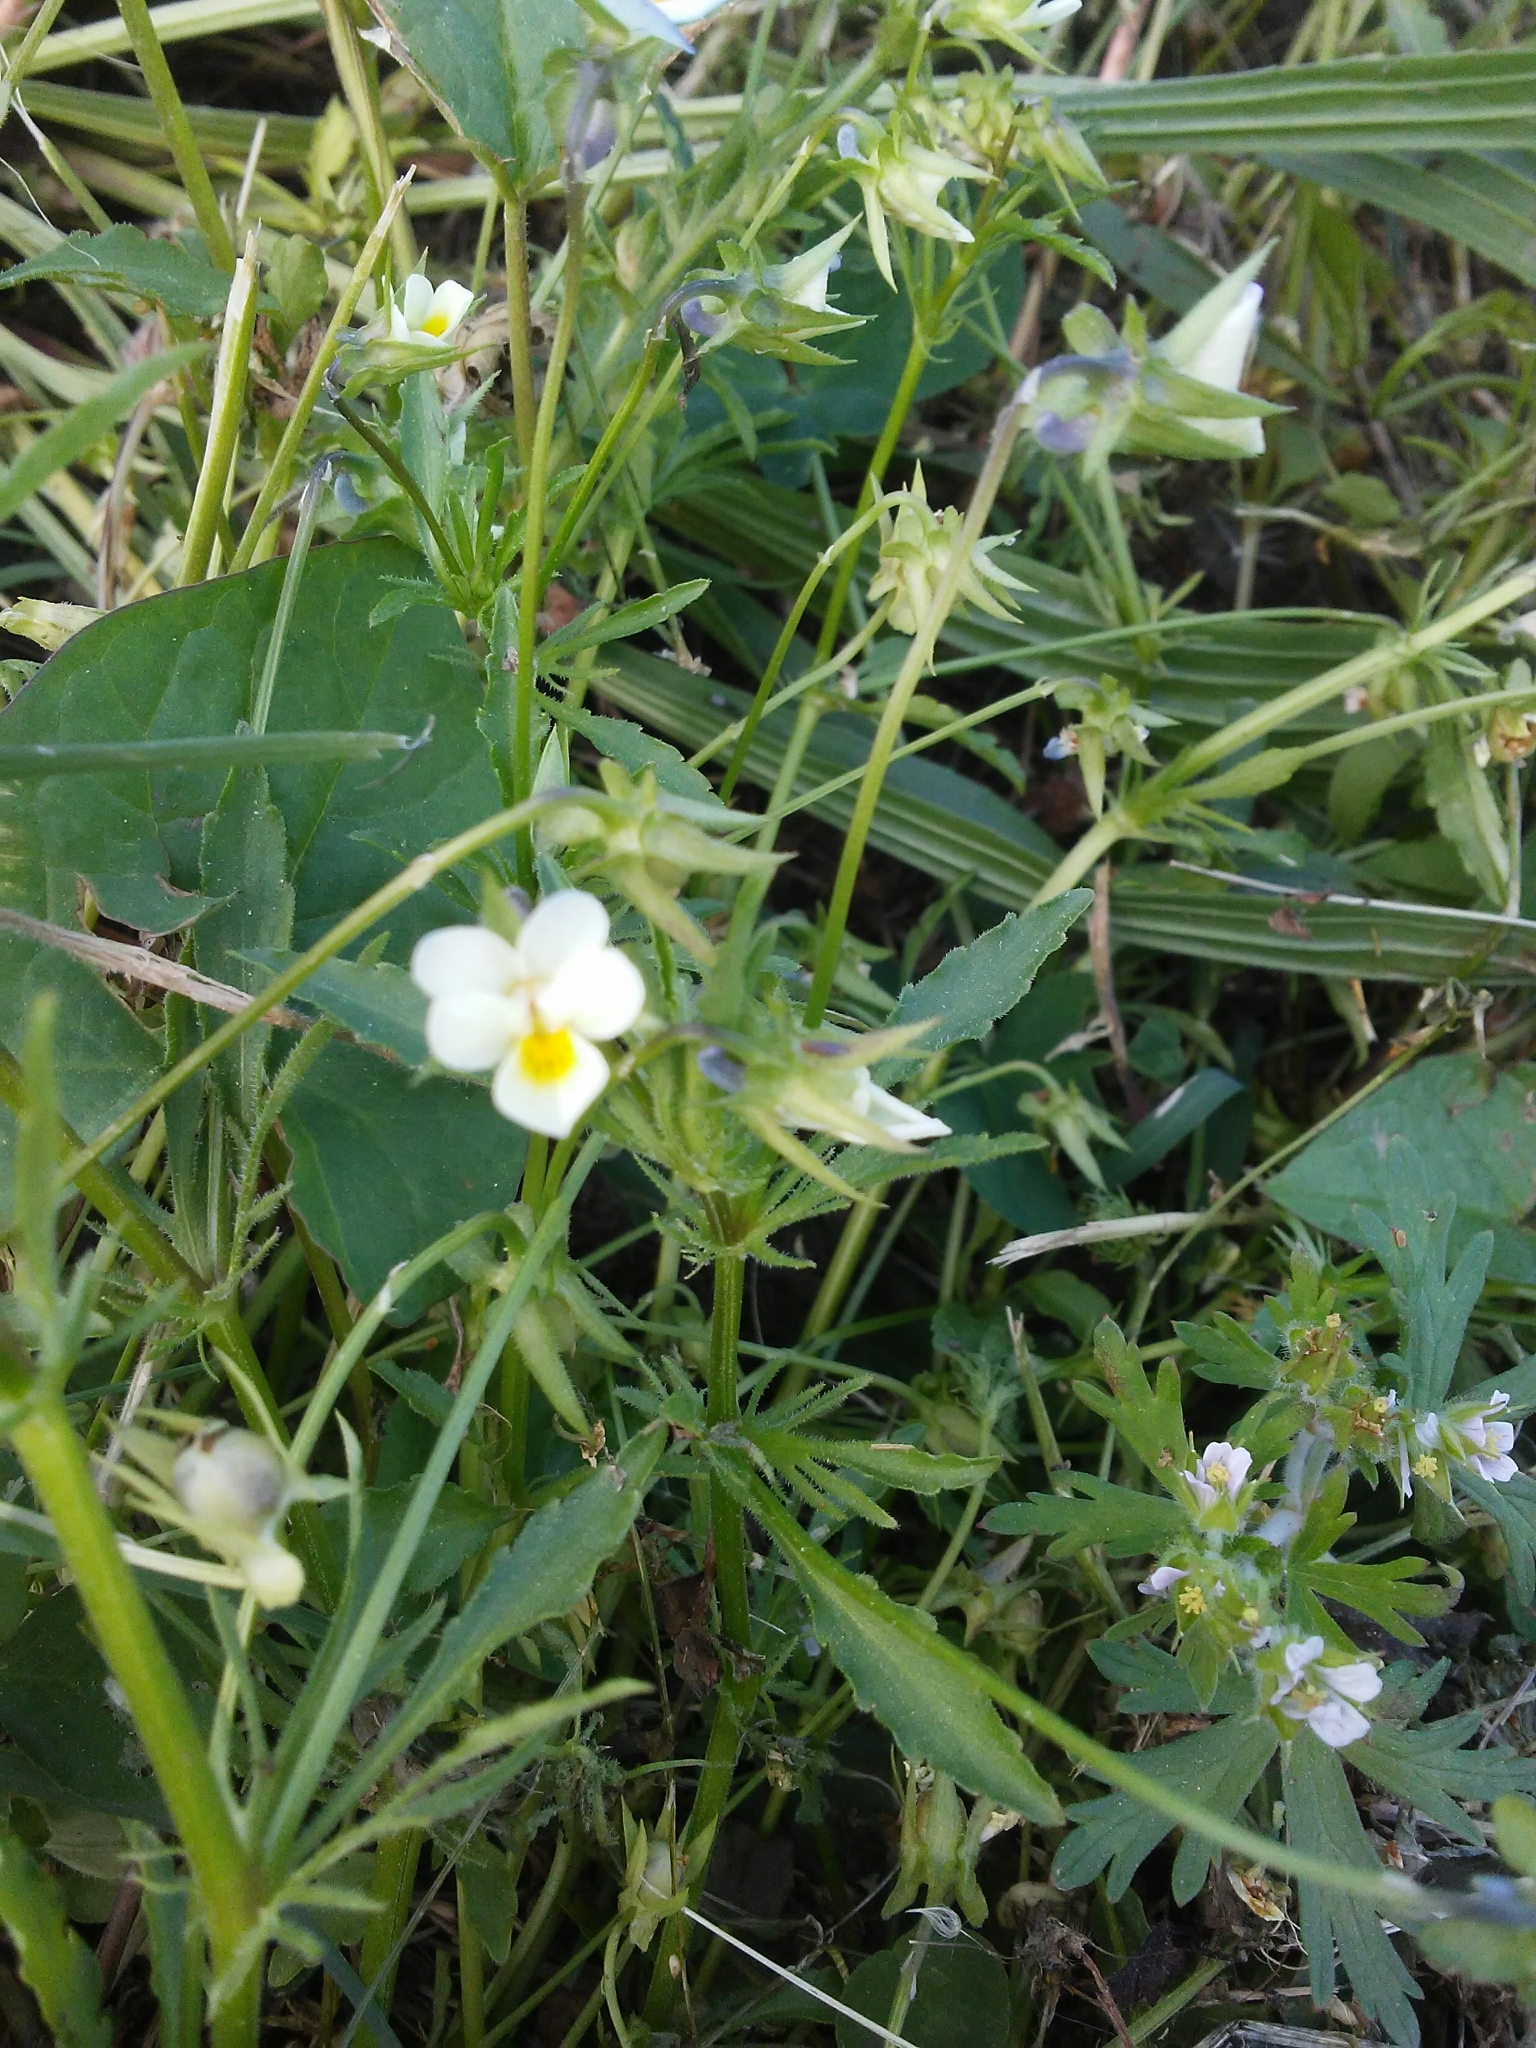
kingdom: Plantae
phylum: Tracheophyta
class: Magnoliopsida
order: Malpighiales
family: Violaceae
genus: Viola
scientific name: Viola arvensis
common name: Field pansy
